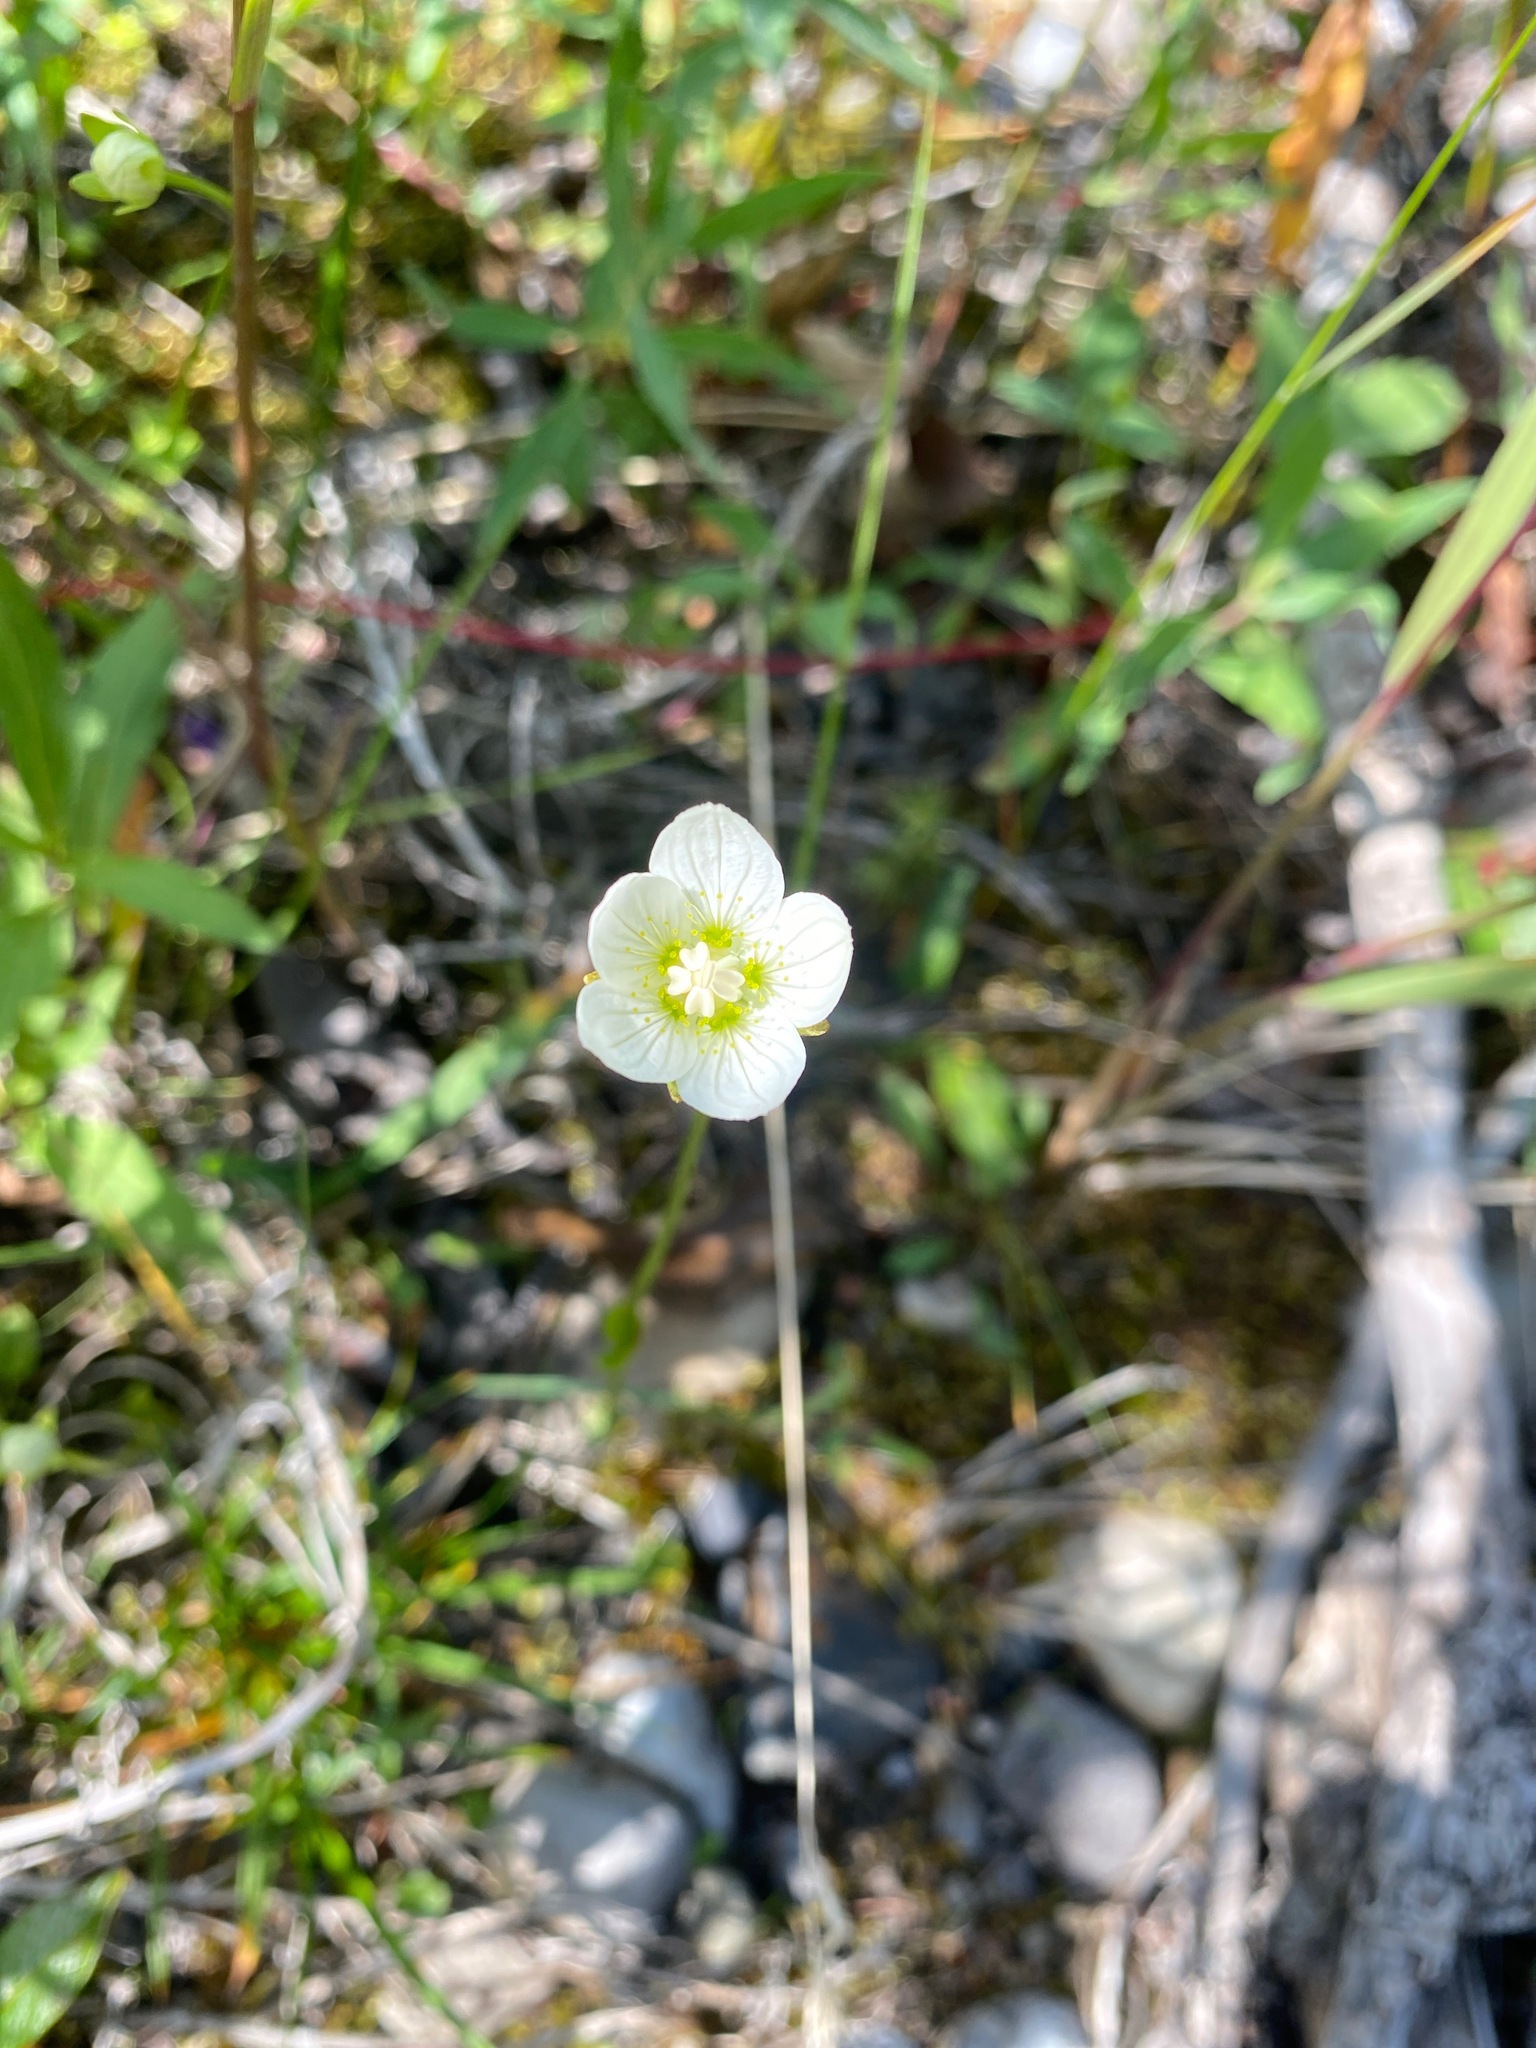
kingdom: Plantae
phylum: Tracheophyta
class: Magnoliopsida
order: Celastrales
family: Parnassiaceae
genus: Parnassia
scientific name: Parnassia palustris
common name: Grass-of-parnassus
